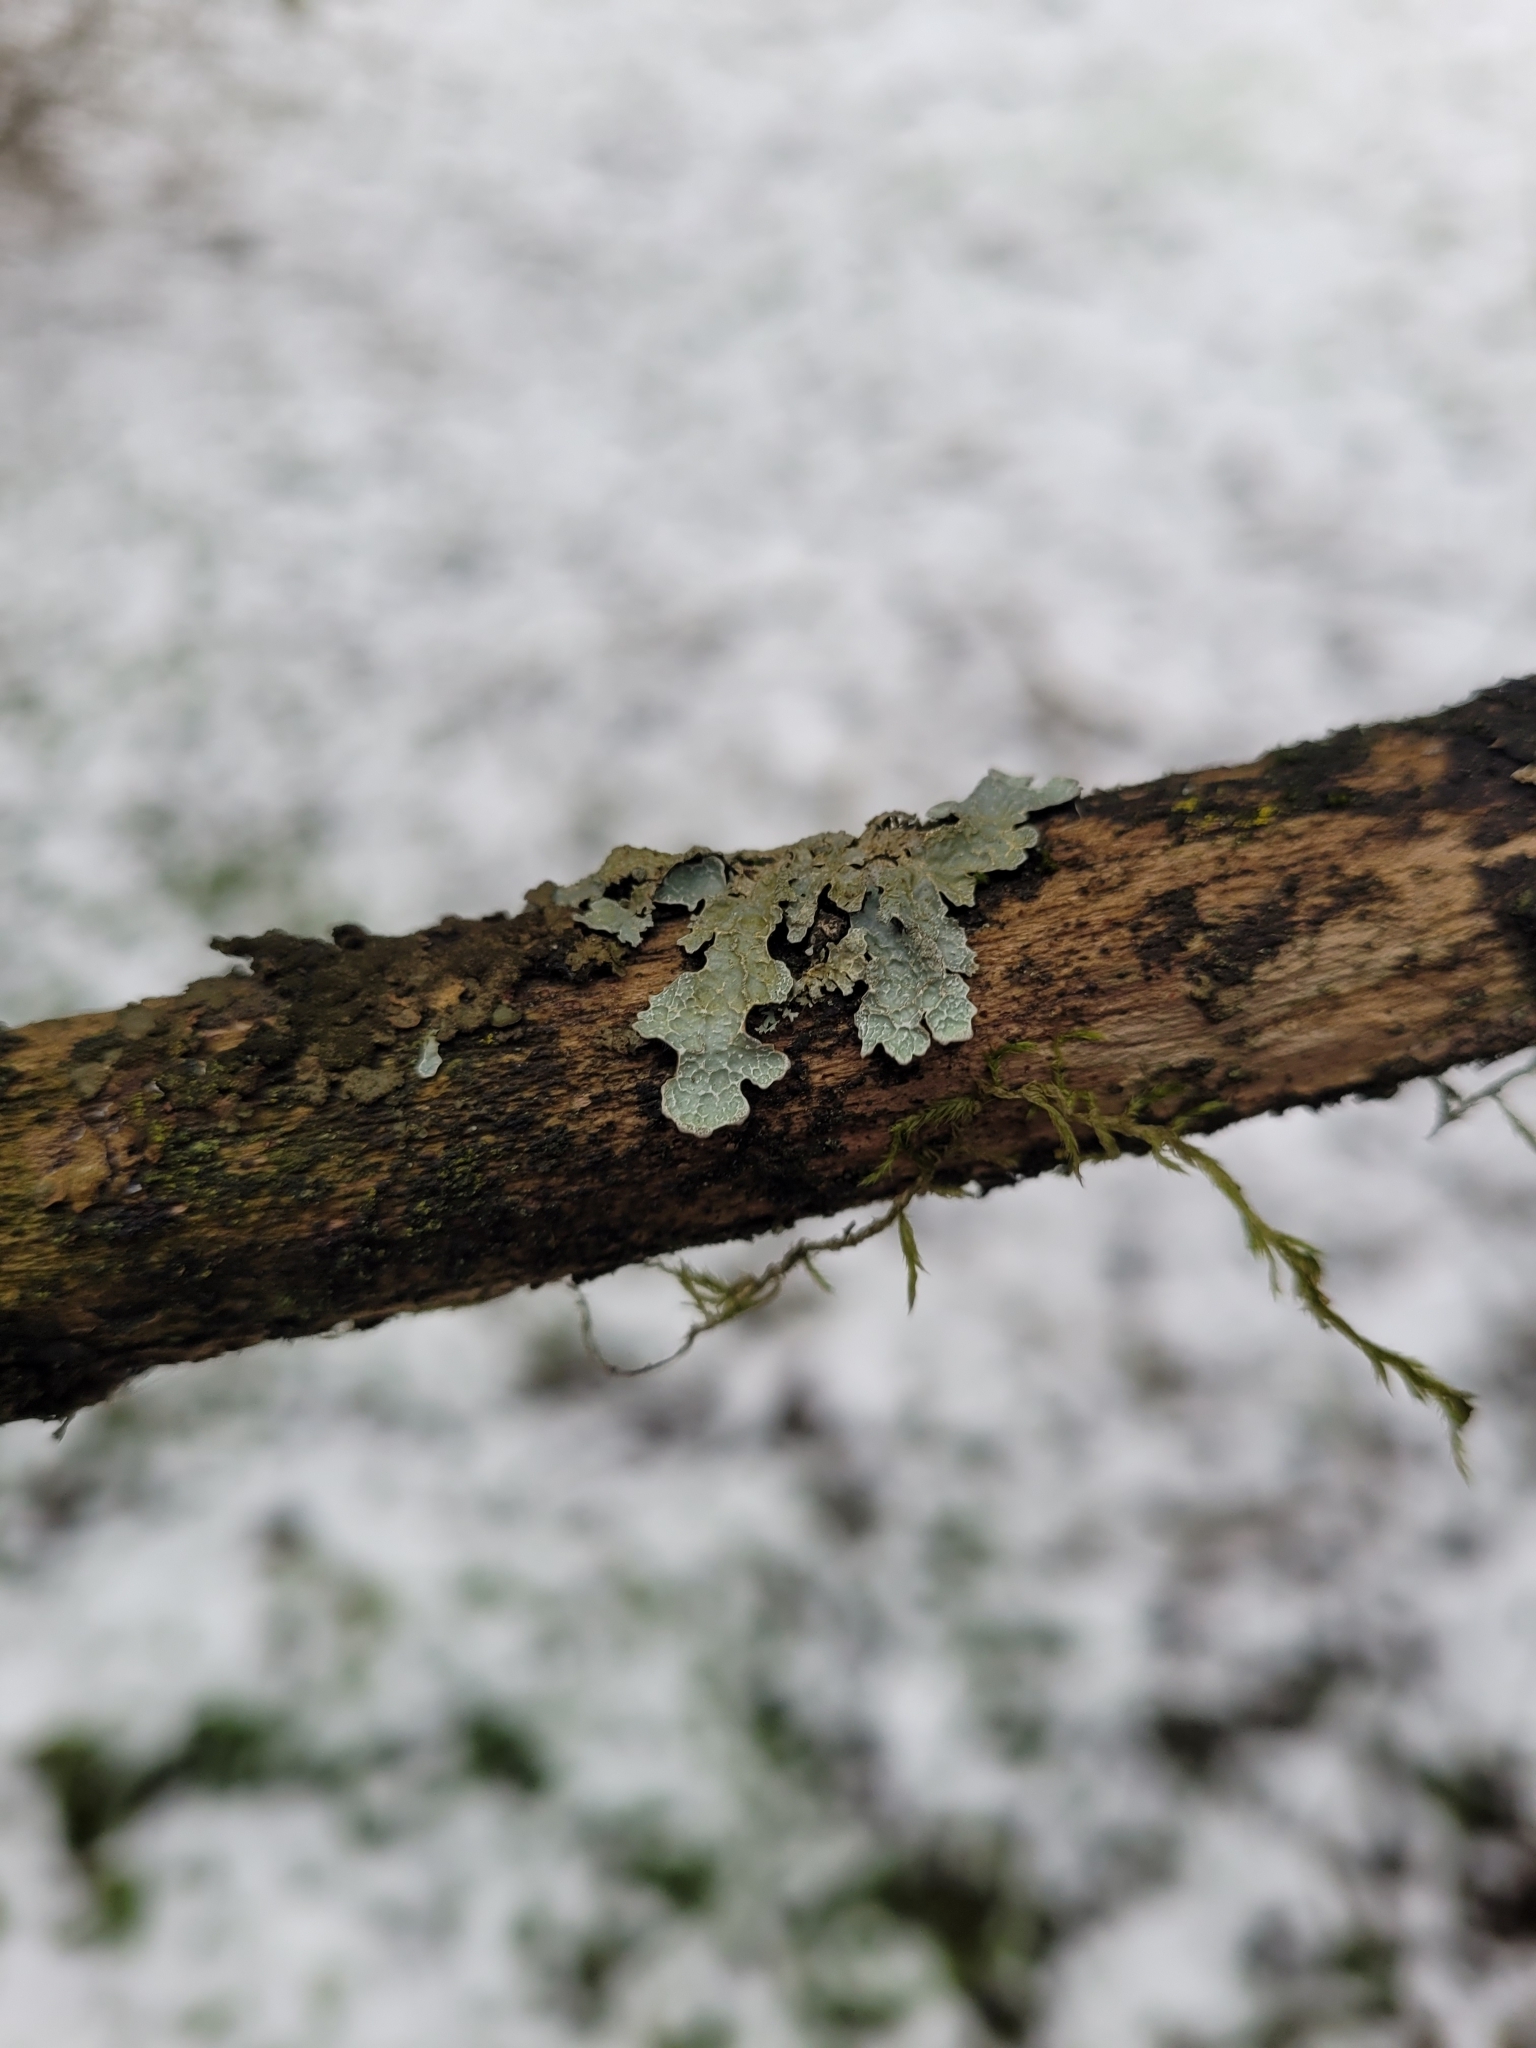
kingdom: Fungi
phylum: Ascomycota
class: Lecanoromycetes
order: Lecanorales
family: Parmeliaceae
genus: Parmelia
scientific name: Parmelia sulcata
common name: Netted shield lichen
